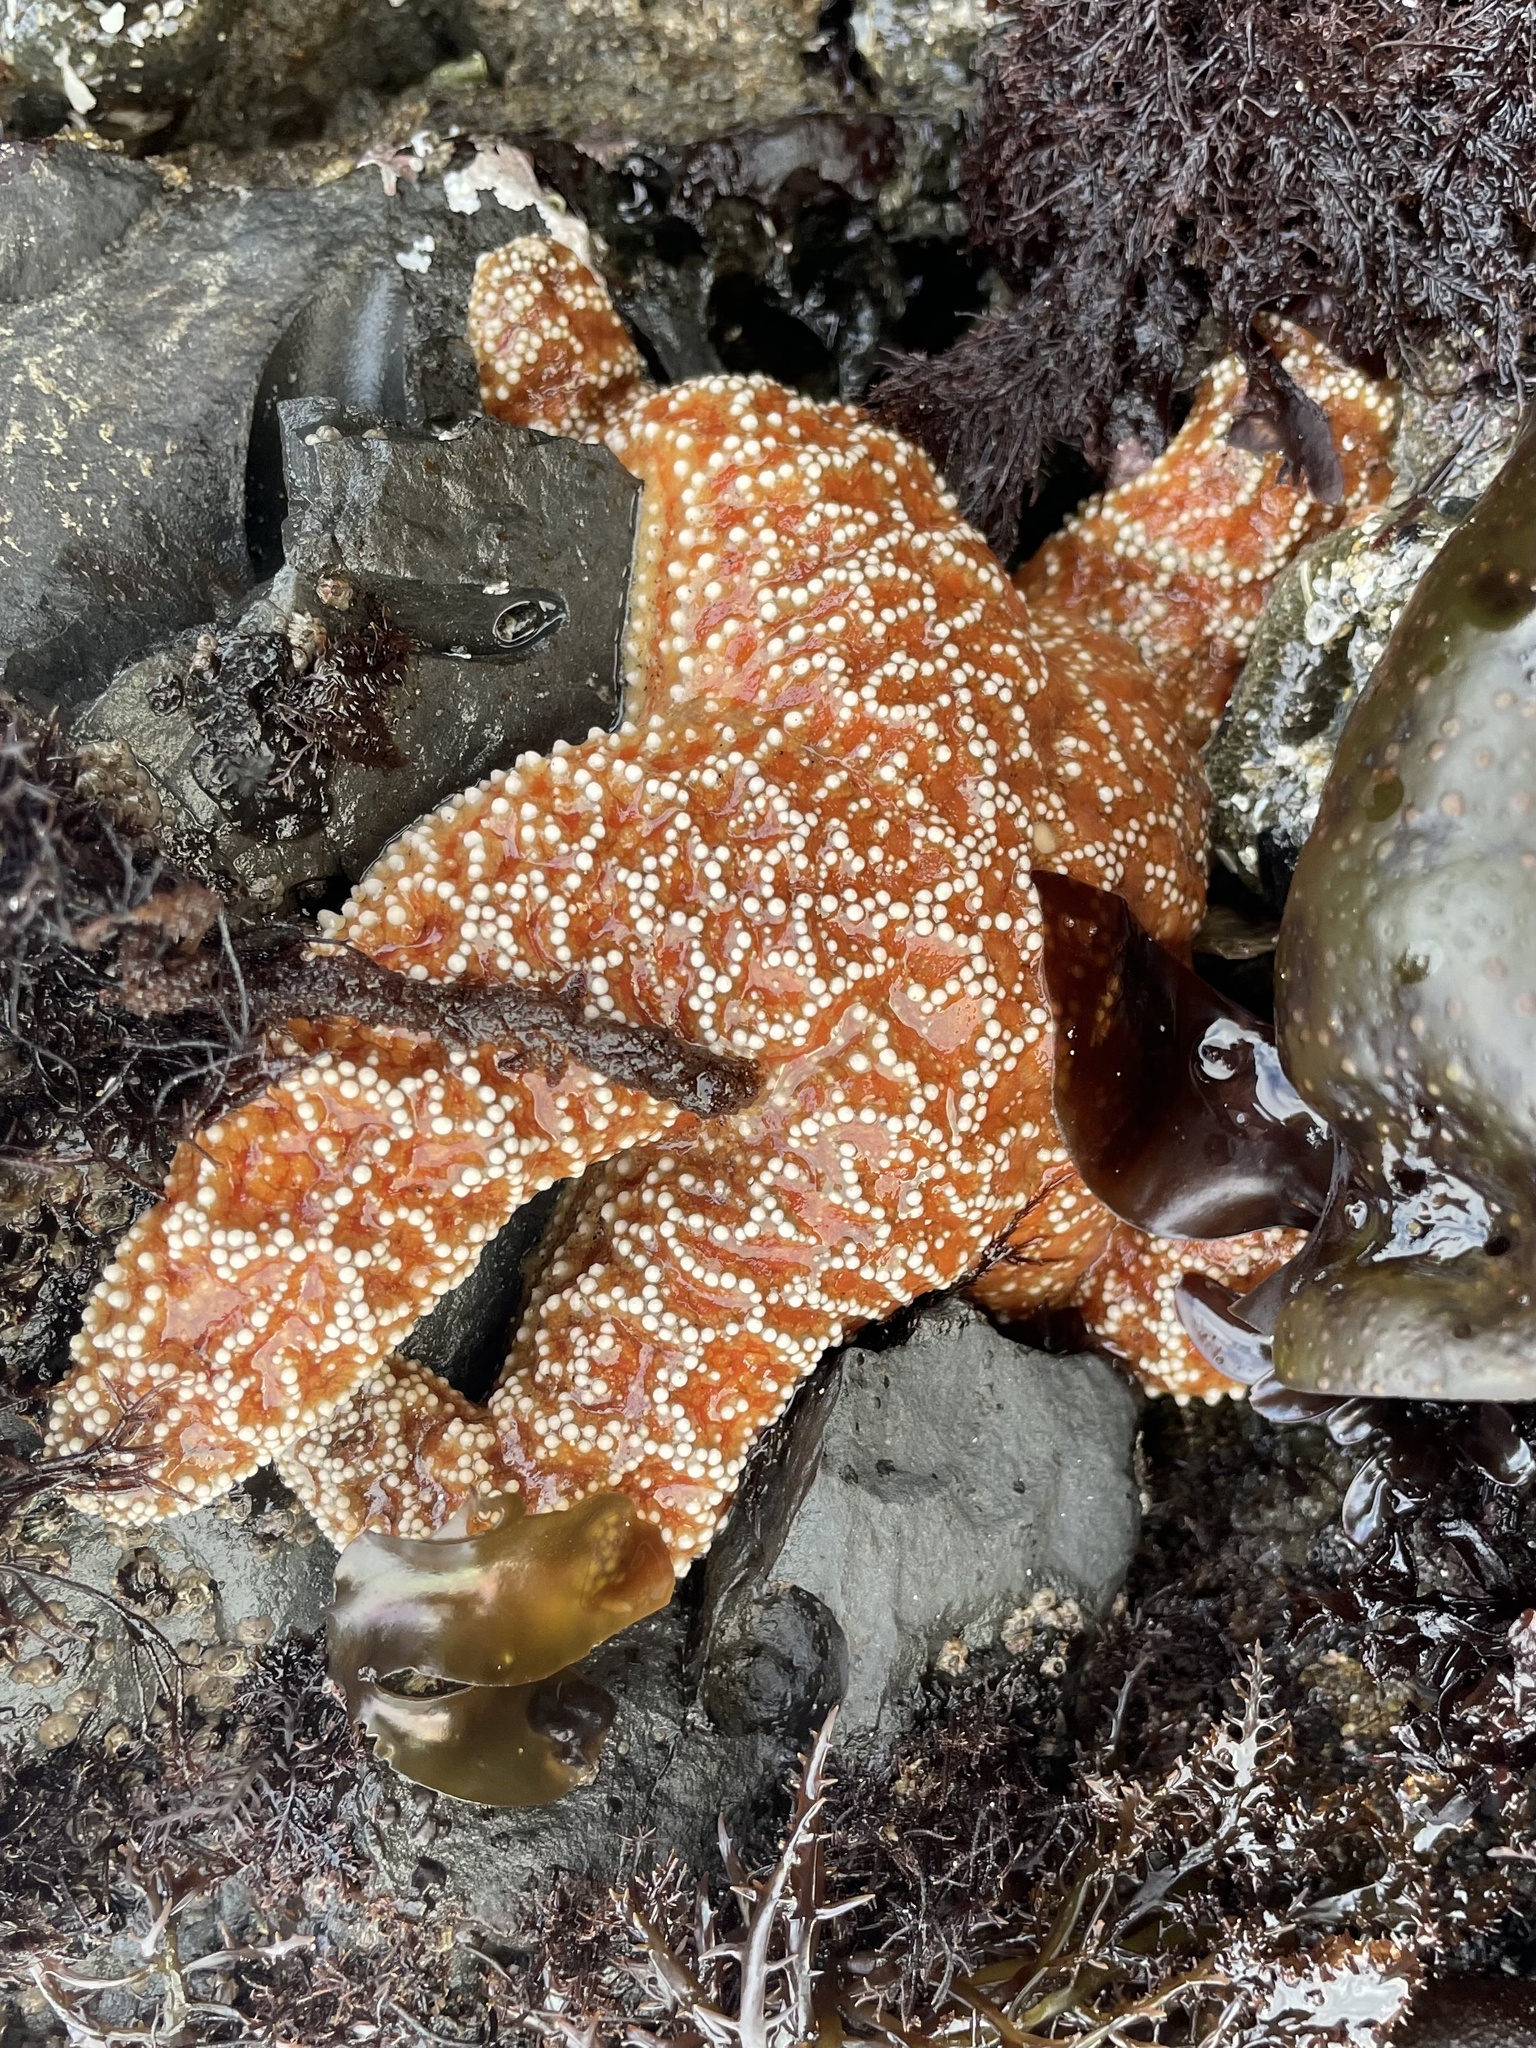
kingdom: Animalia
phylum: Echinodermata
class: Asteroidea
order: Forcipulatida
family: Asteriidae
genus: Pisaster
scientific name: Pisaster ochraceus
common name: Ochre stars
